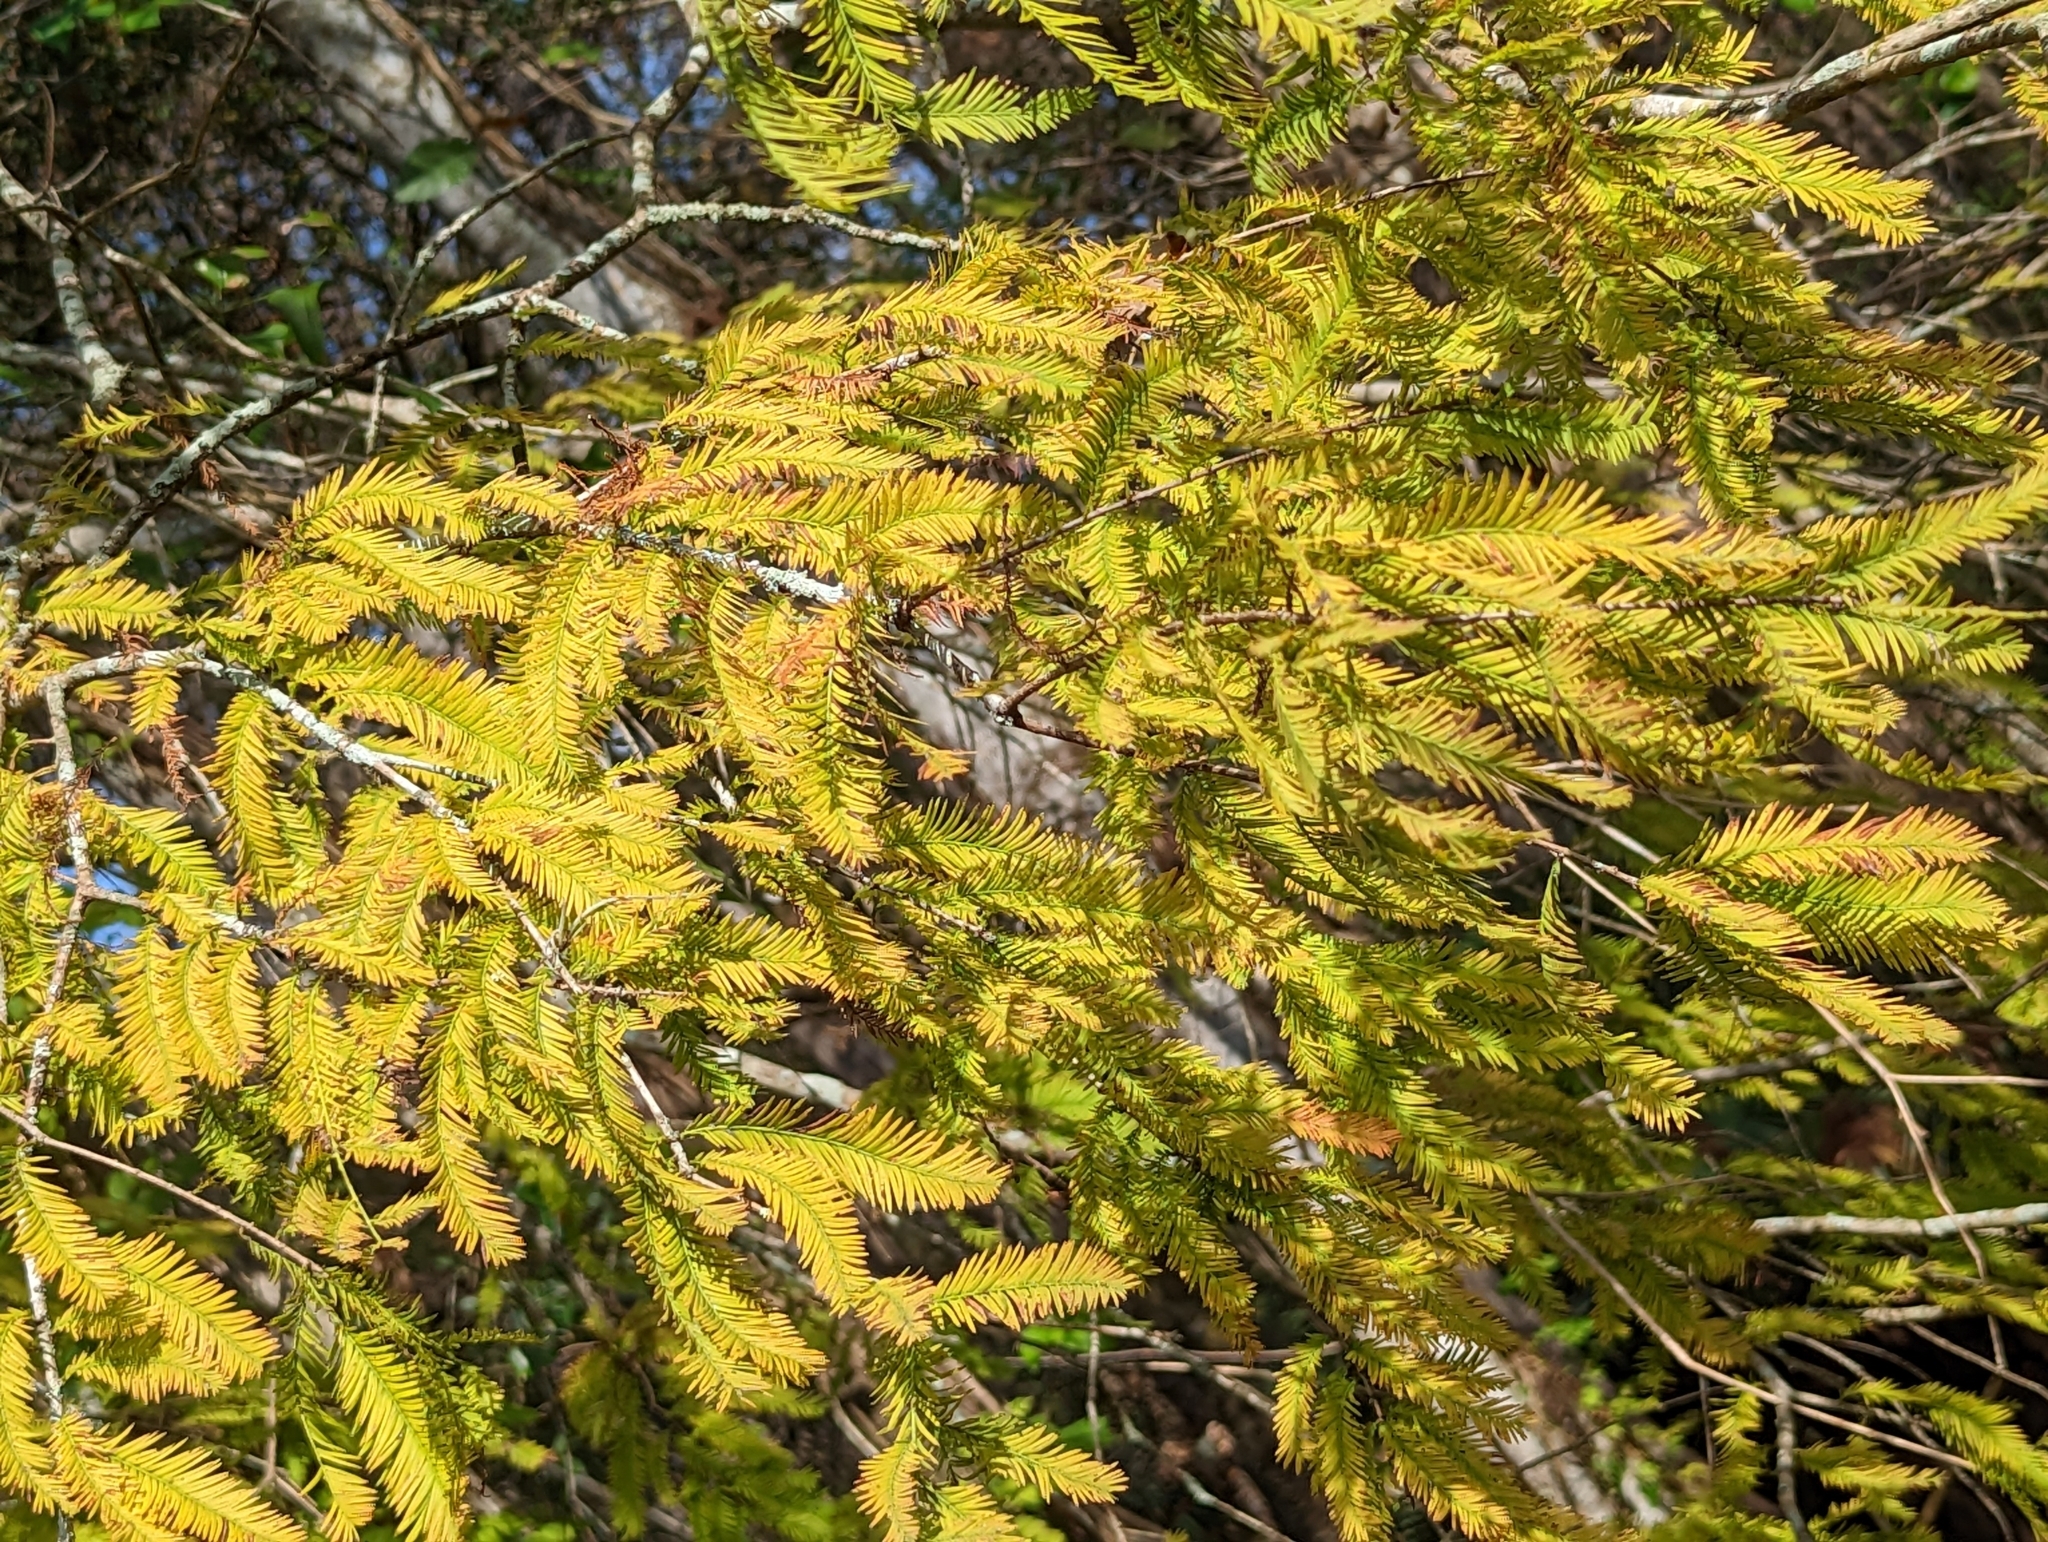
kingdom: Plantae
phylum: Tracheophyta
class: Pinopsida
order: Pinales
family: Cupressaceae
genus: Taxodium
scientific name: Taxodium distichum
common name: Bald cypress
